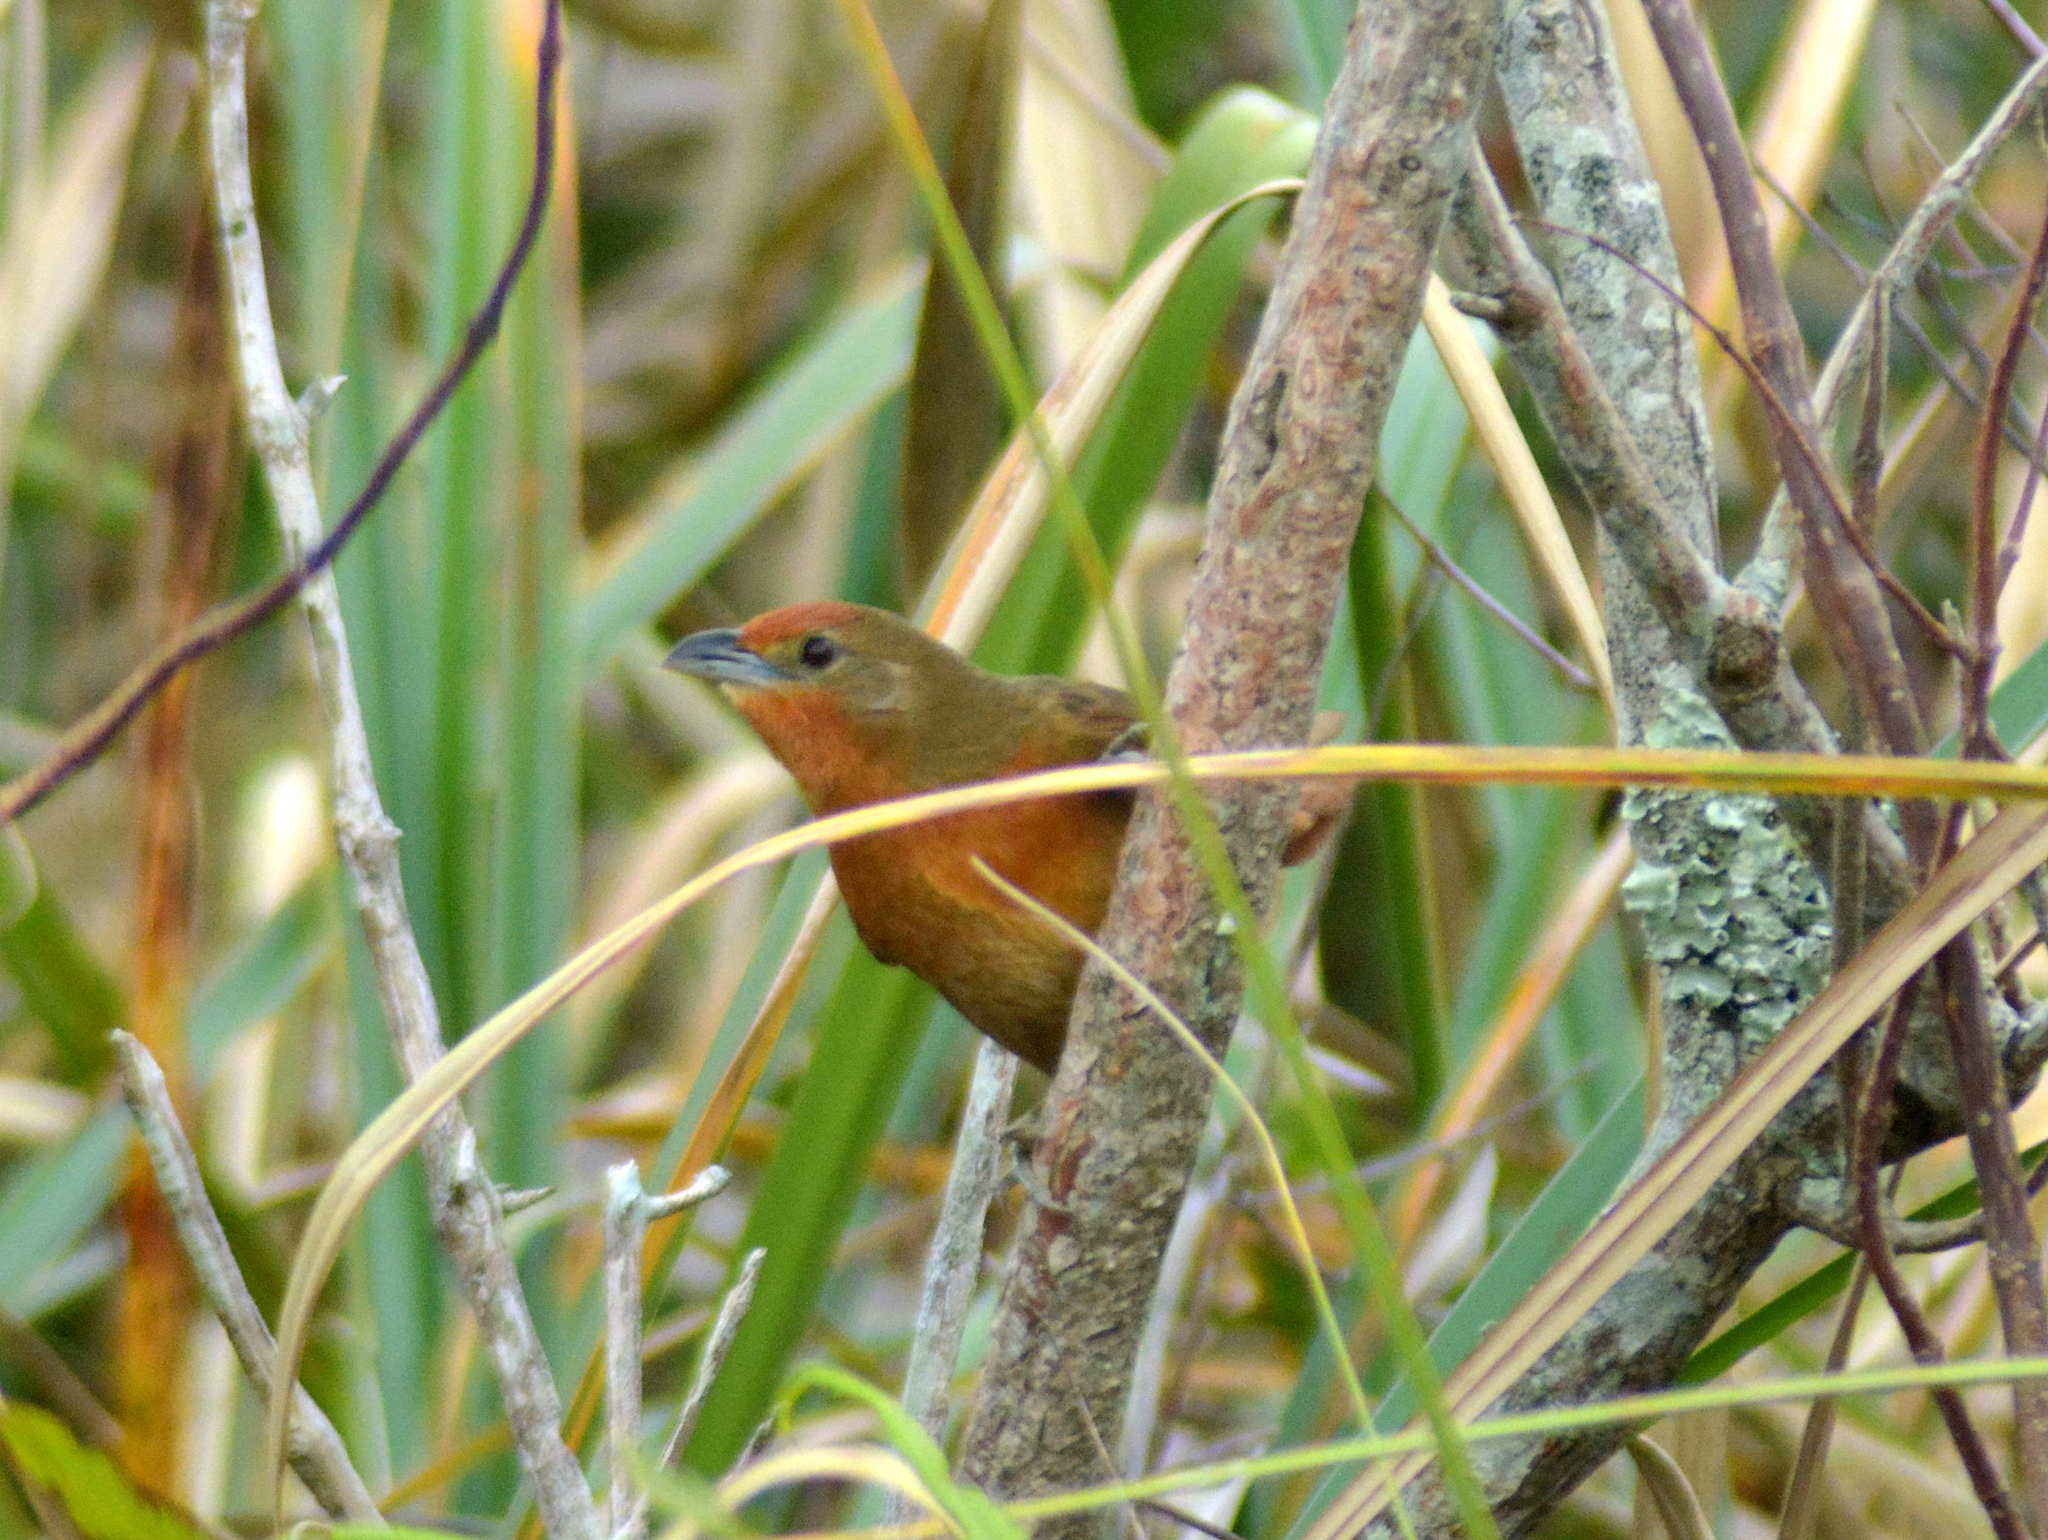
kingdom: Animalia
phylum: Chordata
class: Aves
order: Passeriformes
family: Furnariidae
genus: Phacellodomus
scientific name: Phacellodomus erythrophthalmus
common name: Orange-eyed thornbird
